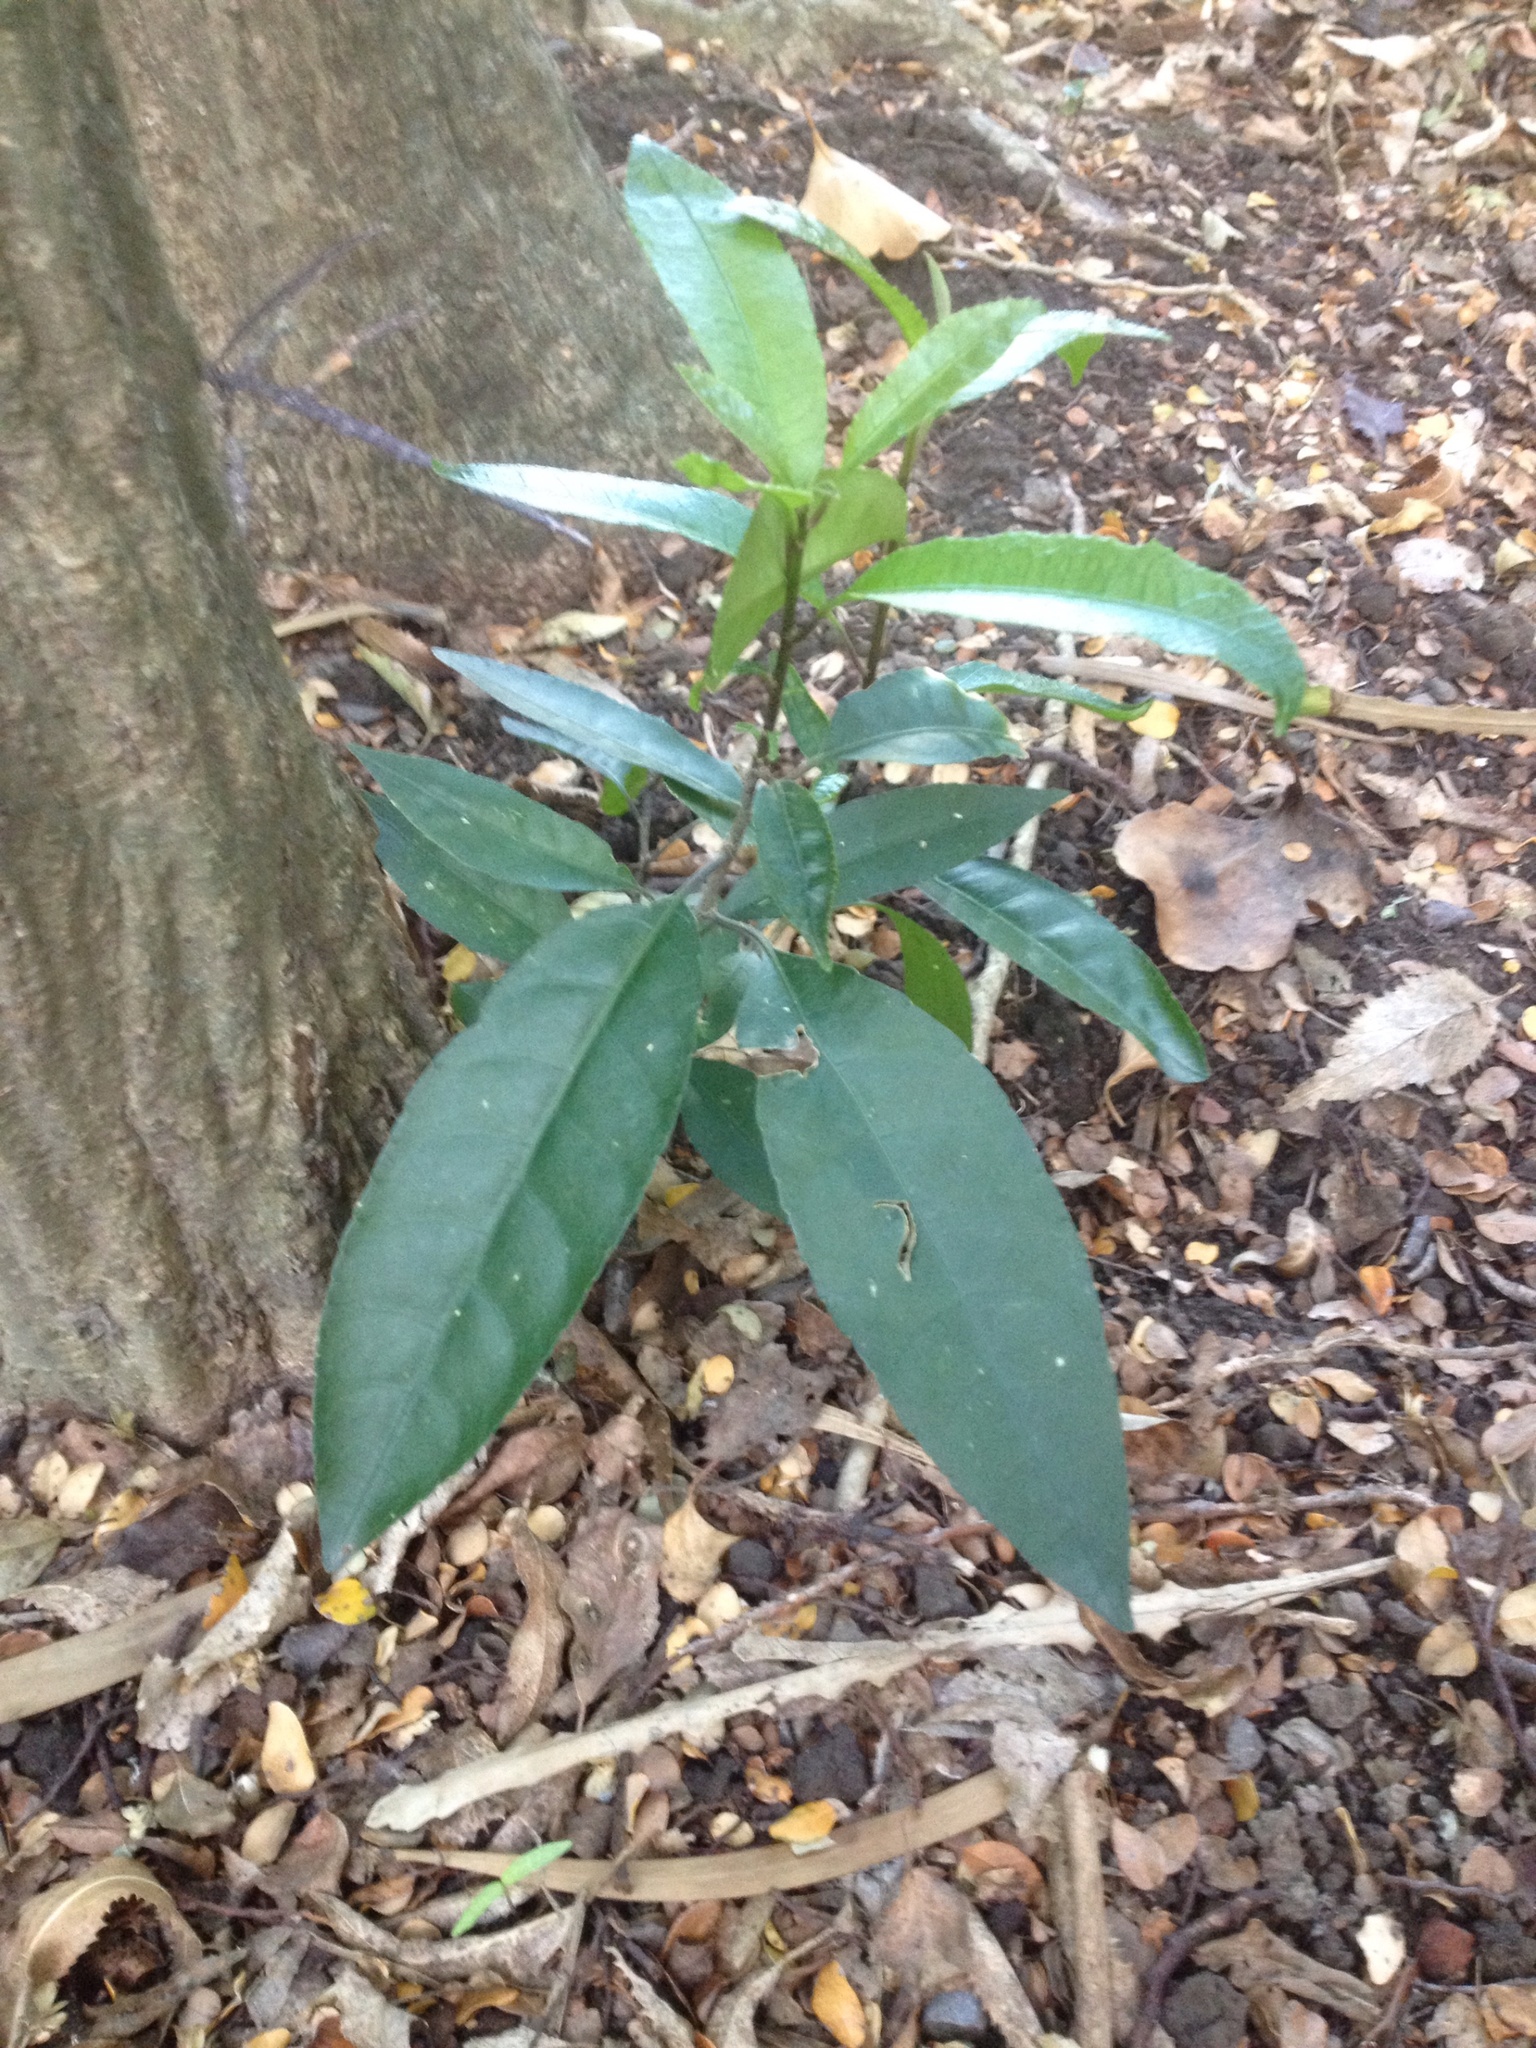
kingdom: Plantae
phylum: Tracheophyta
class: Magnoliopsida
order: Malpighiales
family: Violaceae
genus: Melicytus
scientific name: Melicytus ramiflorus
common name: Mahoe
